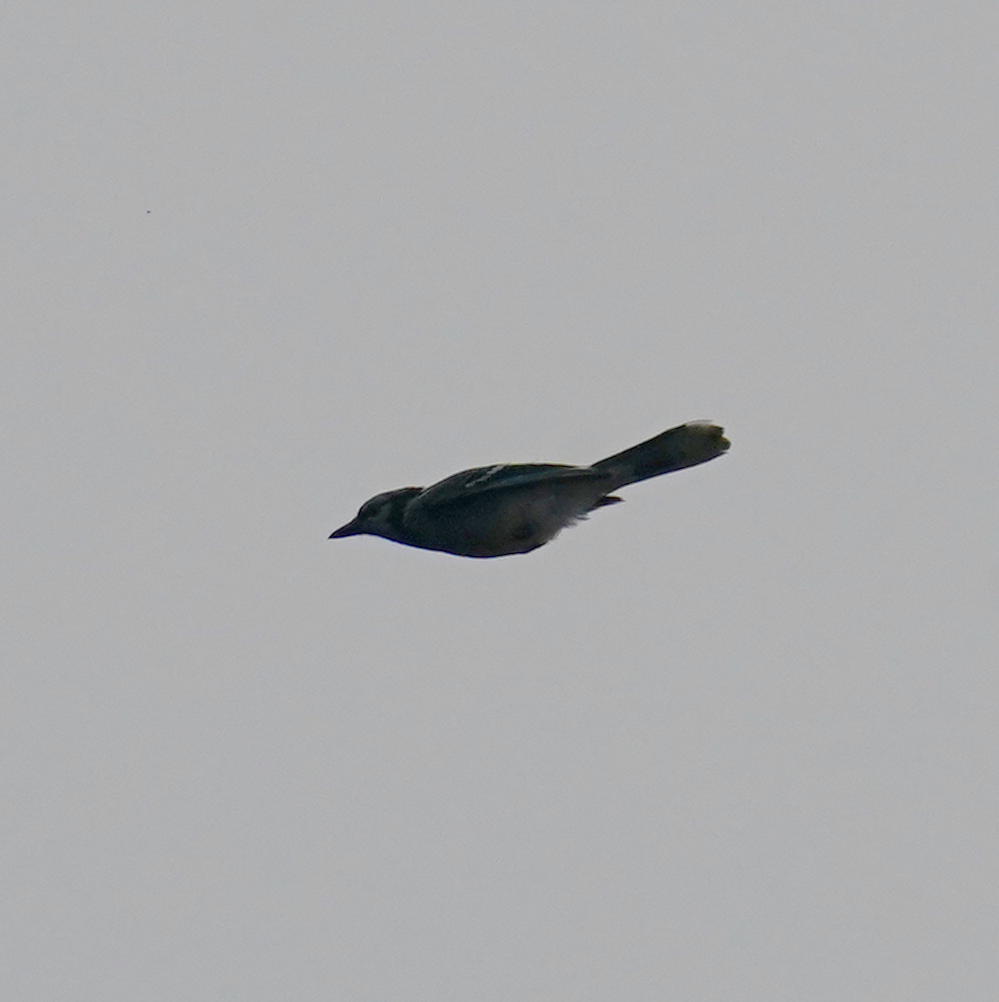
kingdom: Animalia
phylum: Chordata
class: Aves
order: Passeriformes
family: Corvidae
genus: Cyanocitta
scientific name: Cyanocitta cristata
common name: Blue jay
